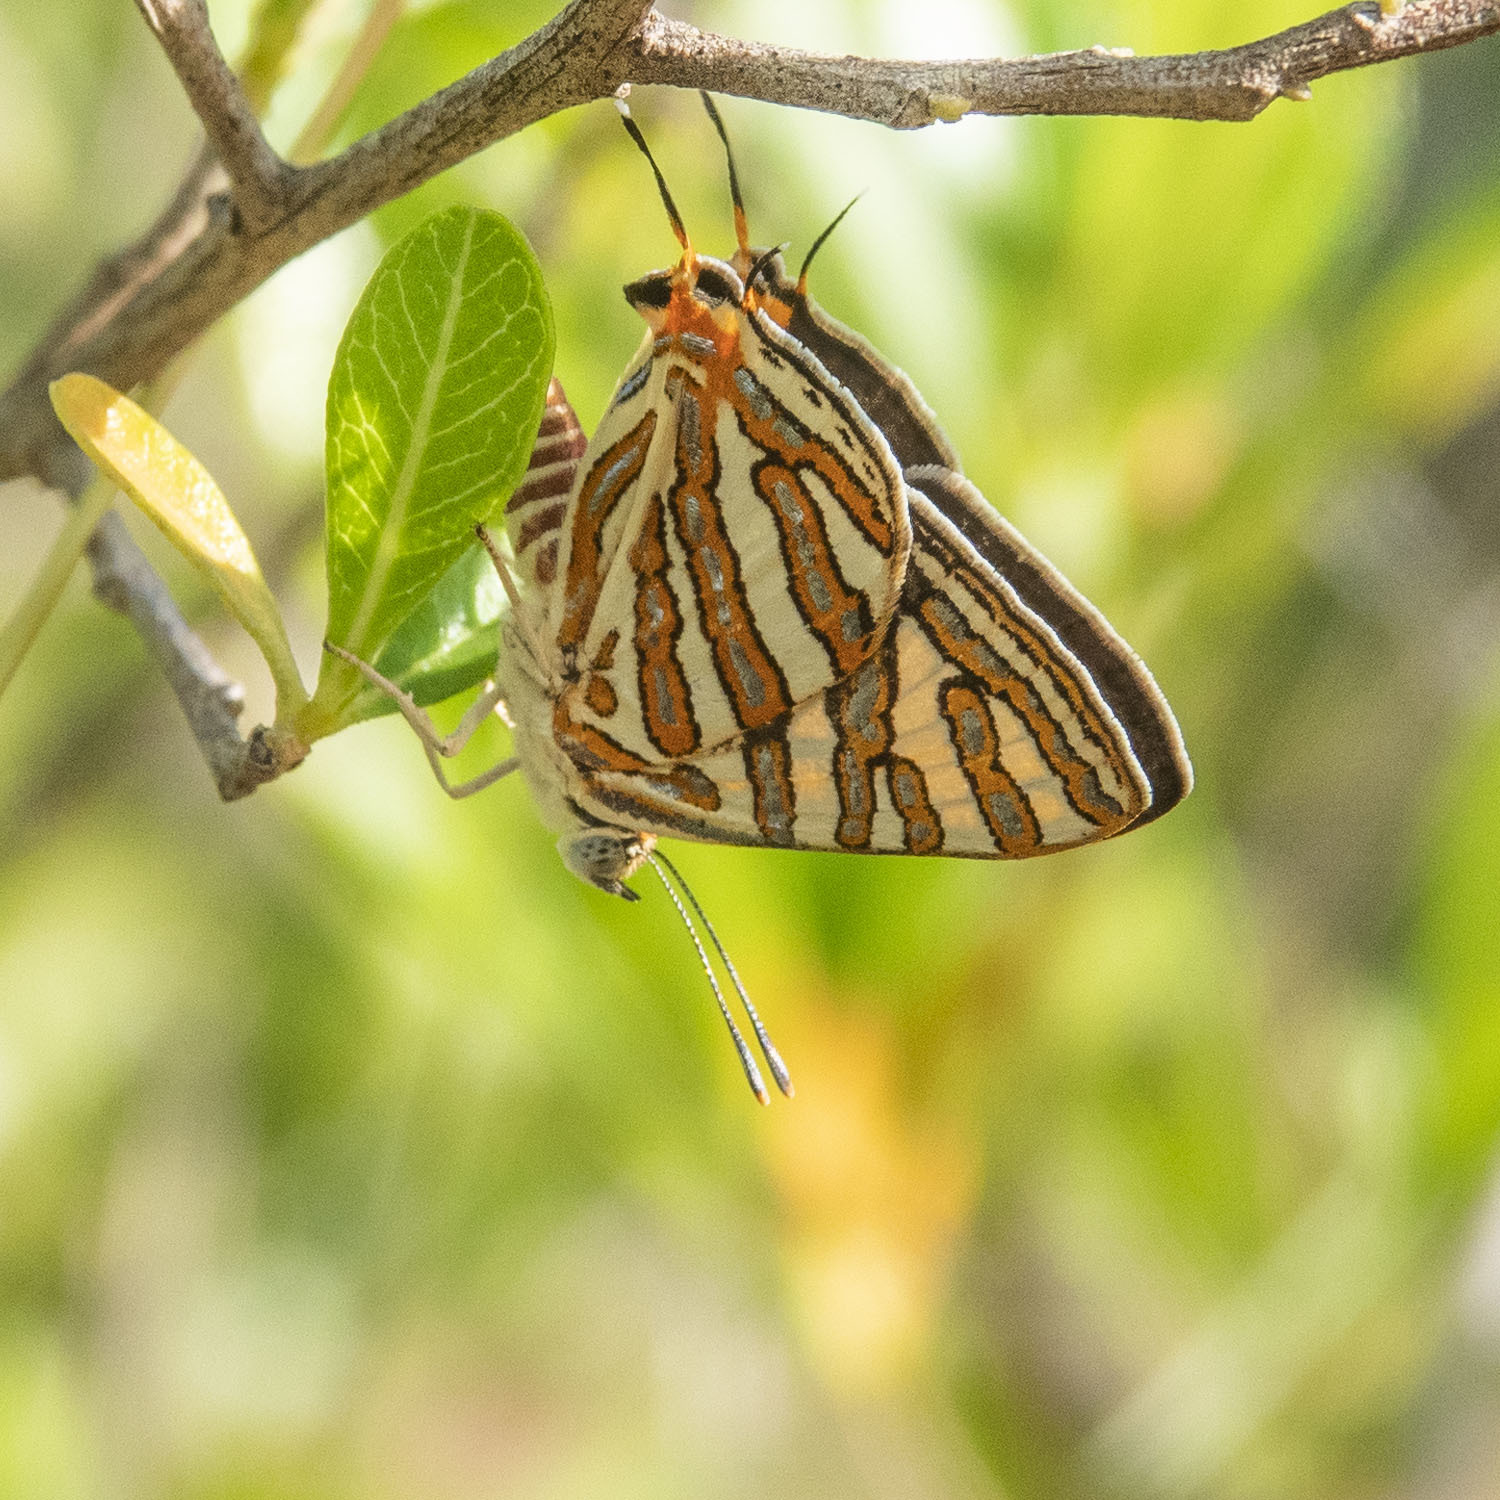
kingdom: Animalia
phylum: Arthropoda
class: Insecta
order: Lepidoptera
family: Lycaenidae
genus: Cigaritis
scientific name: Cigaritis vulcanus
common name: Common silverline
